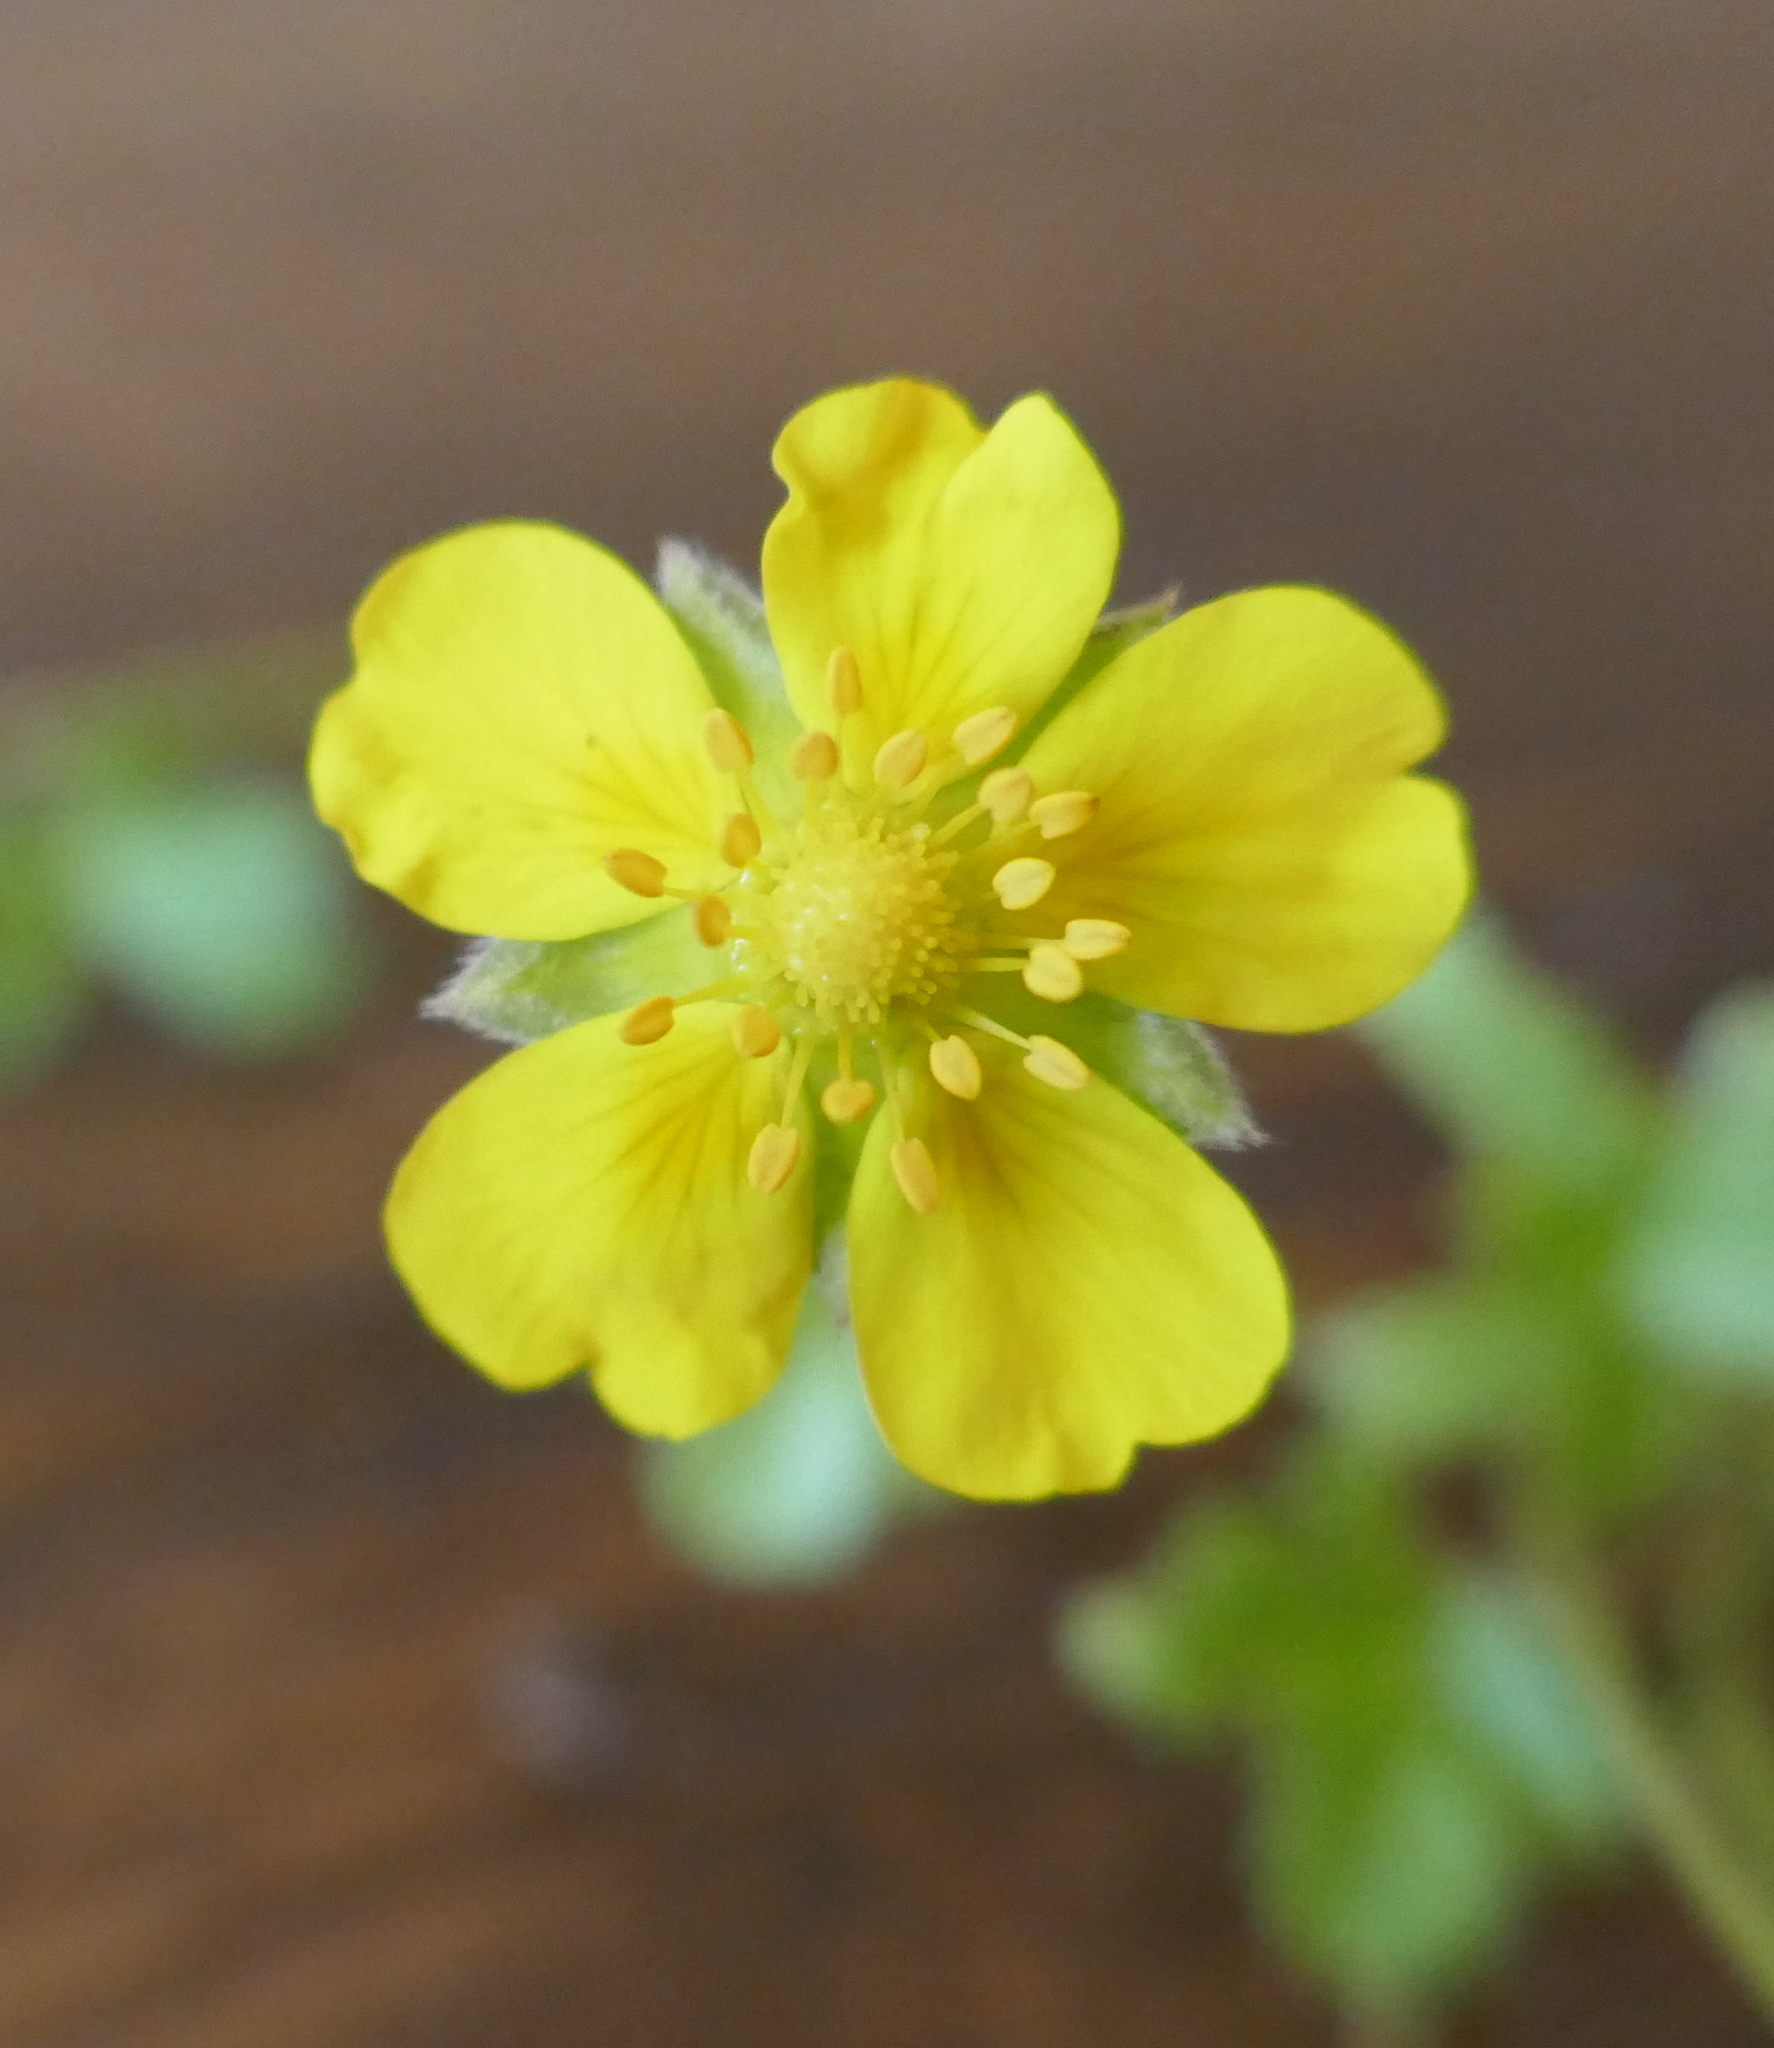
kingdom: Plantae
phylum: Tracheophyta
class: Magnoliopsida
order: Rosales
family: Rosaceae
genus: Potentilla
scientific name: Potentilla reptans
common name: Creeping cinquefoil
